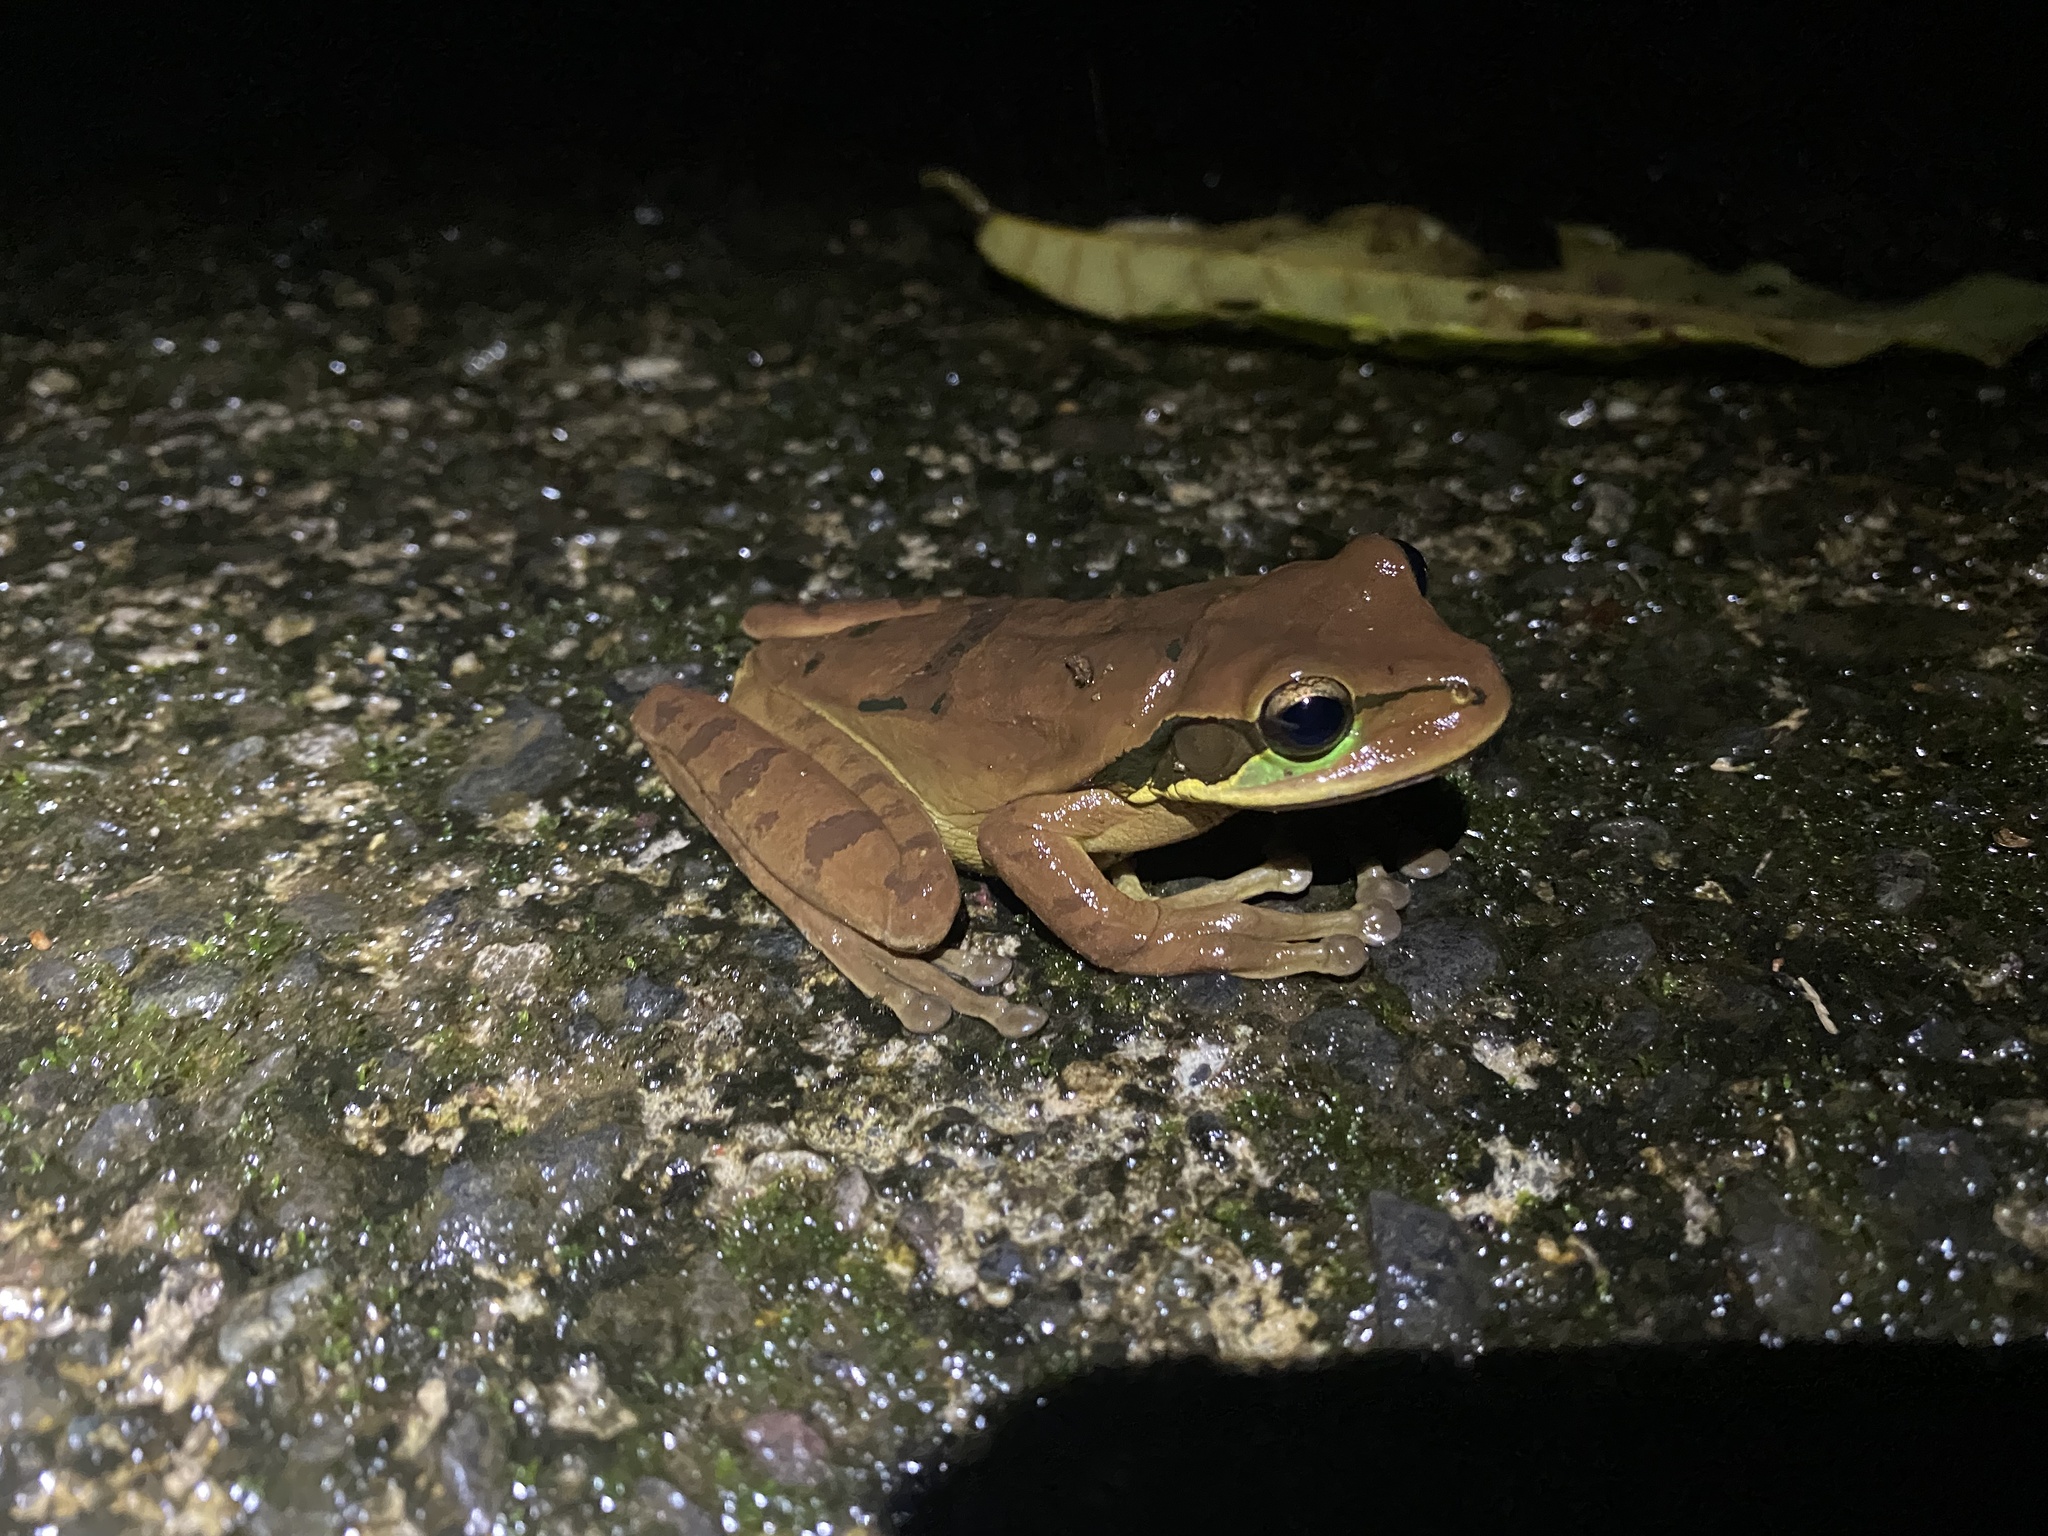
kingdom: Animalia
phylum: Chordata
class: Amphibia
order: Anura
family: Hylidae
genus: Smilisca
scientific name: Smilisca phaeota
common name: Central american smilisca
